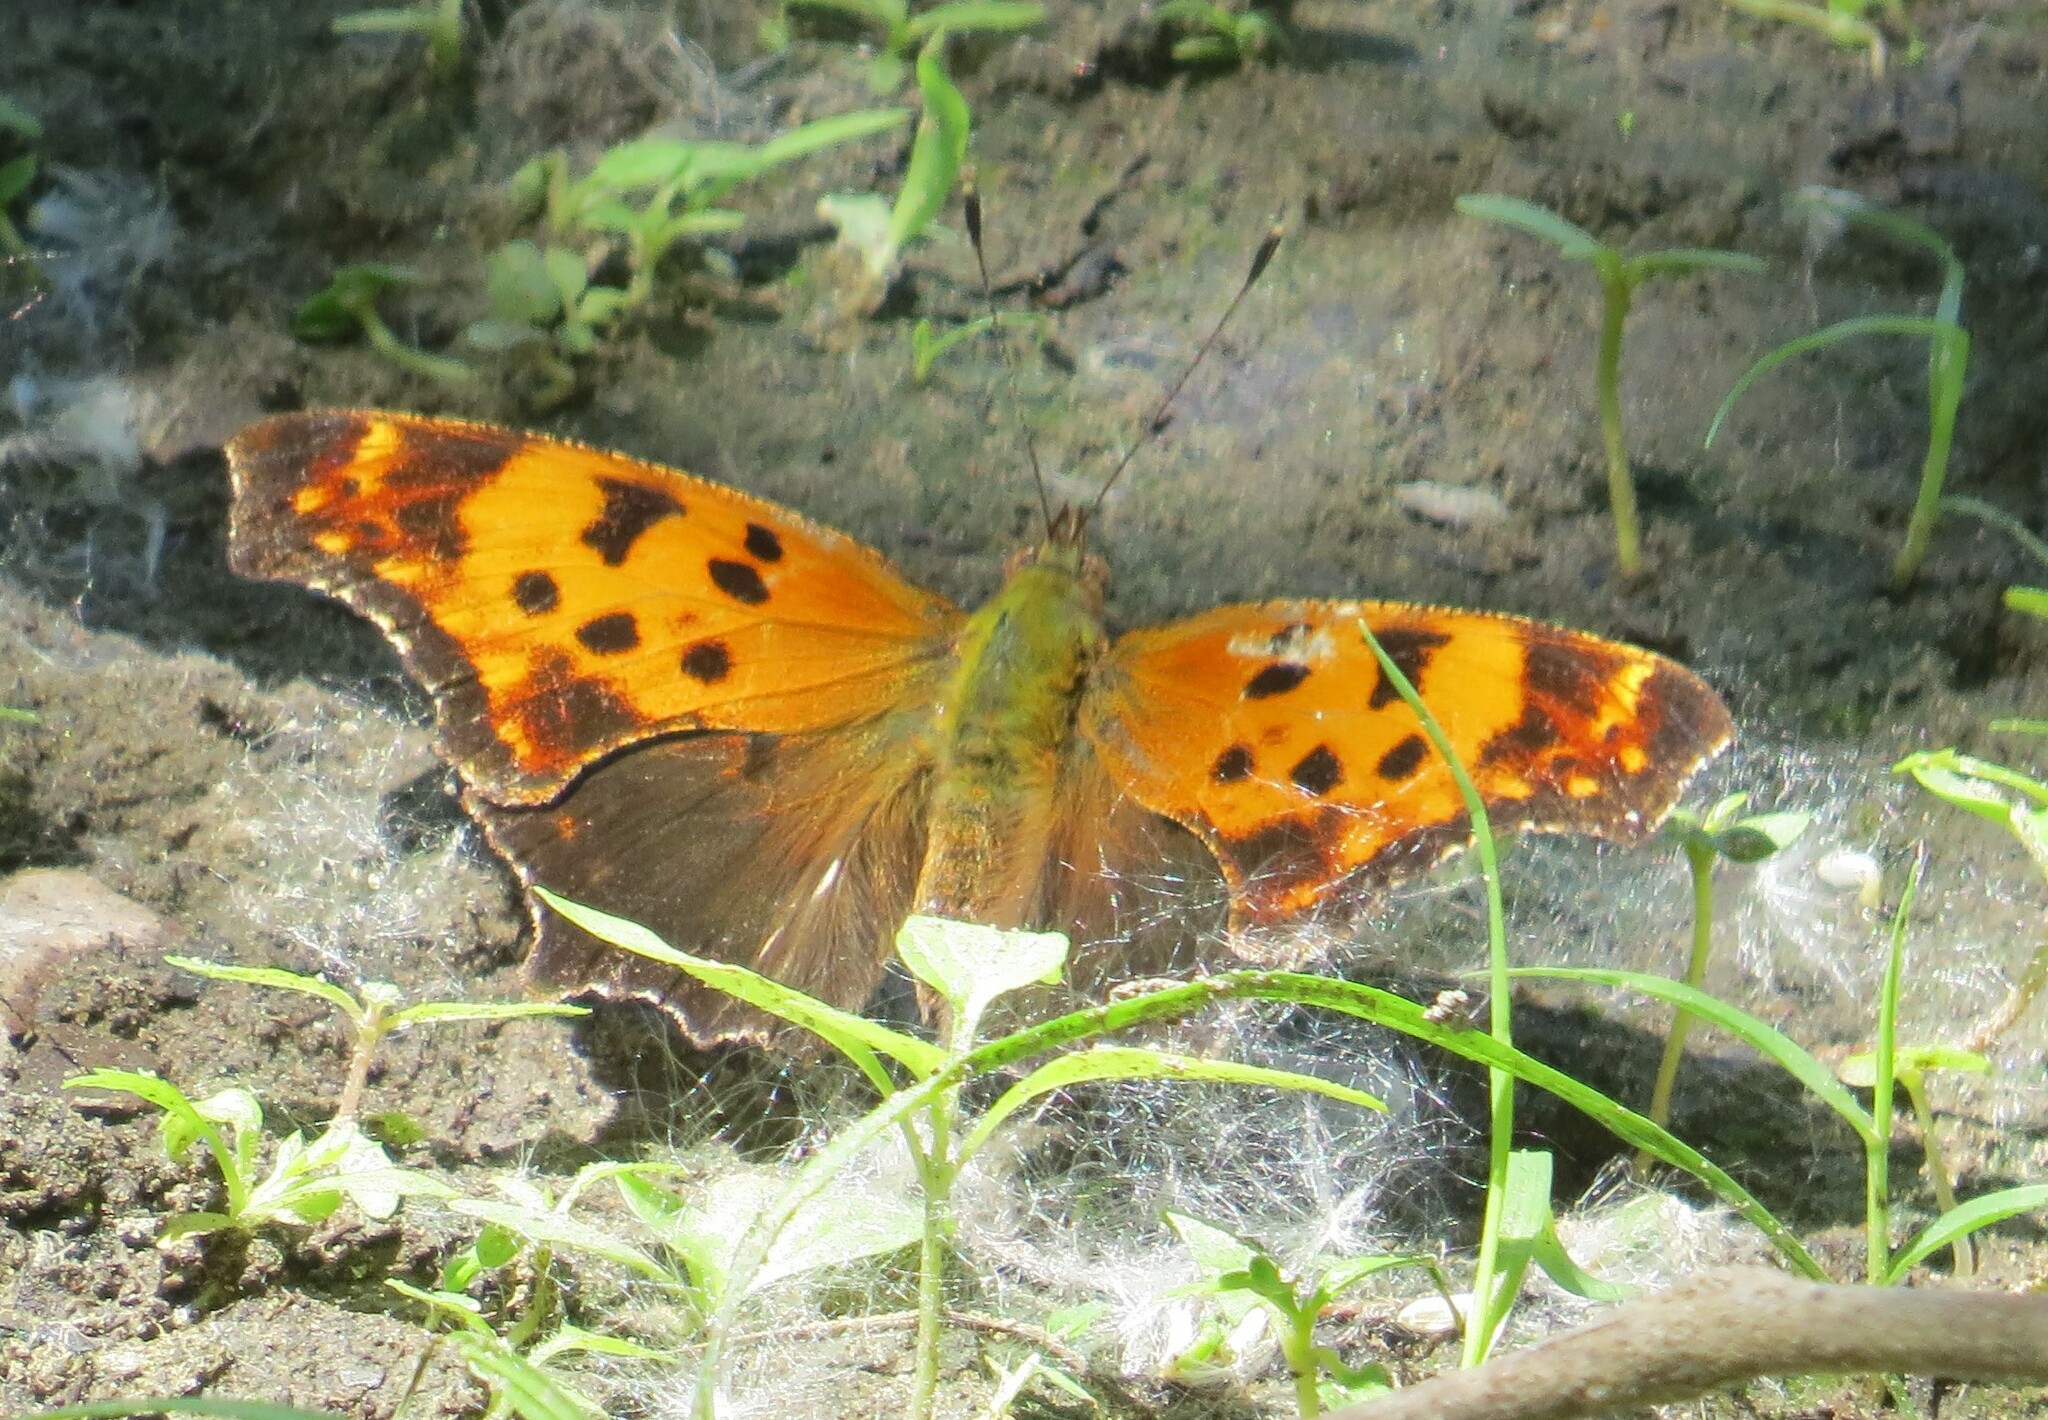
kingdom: Animalia
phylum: Arthropoda
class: Insecta
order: Lepidoptera
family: Nymphalidae
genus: Polygonia
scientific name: Polygonia comma
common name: Eastern comma
